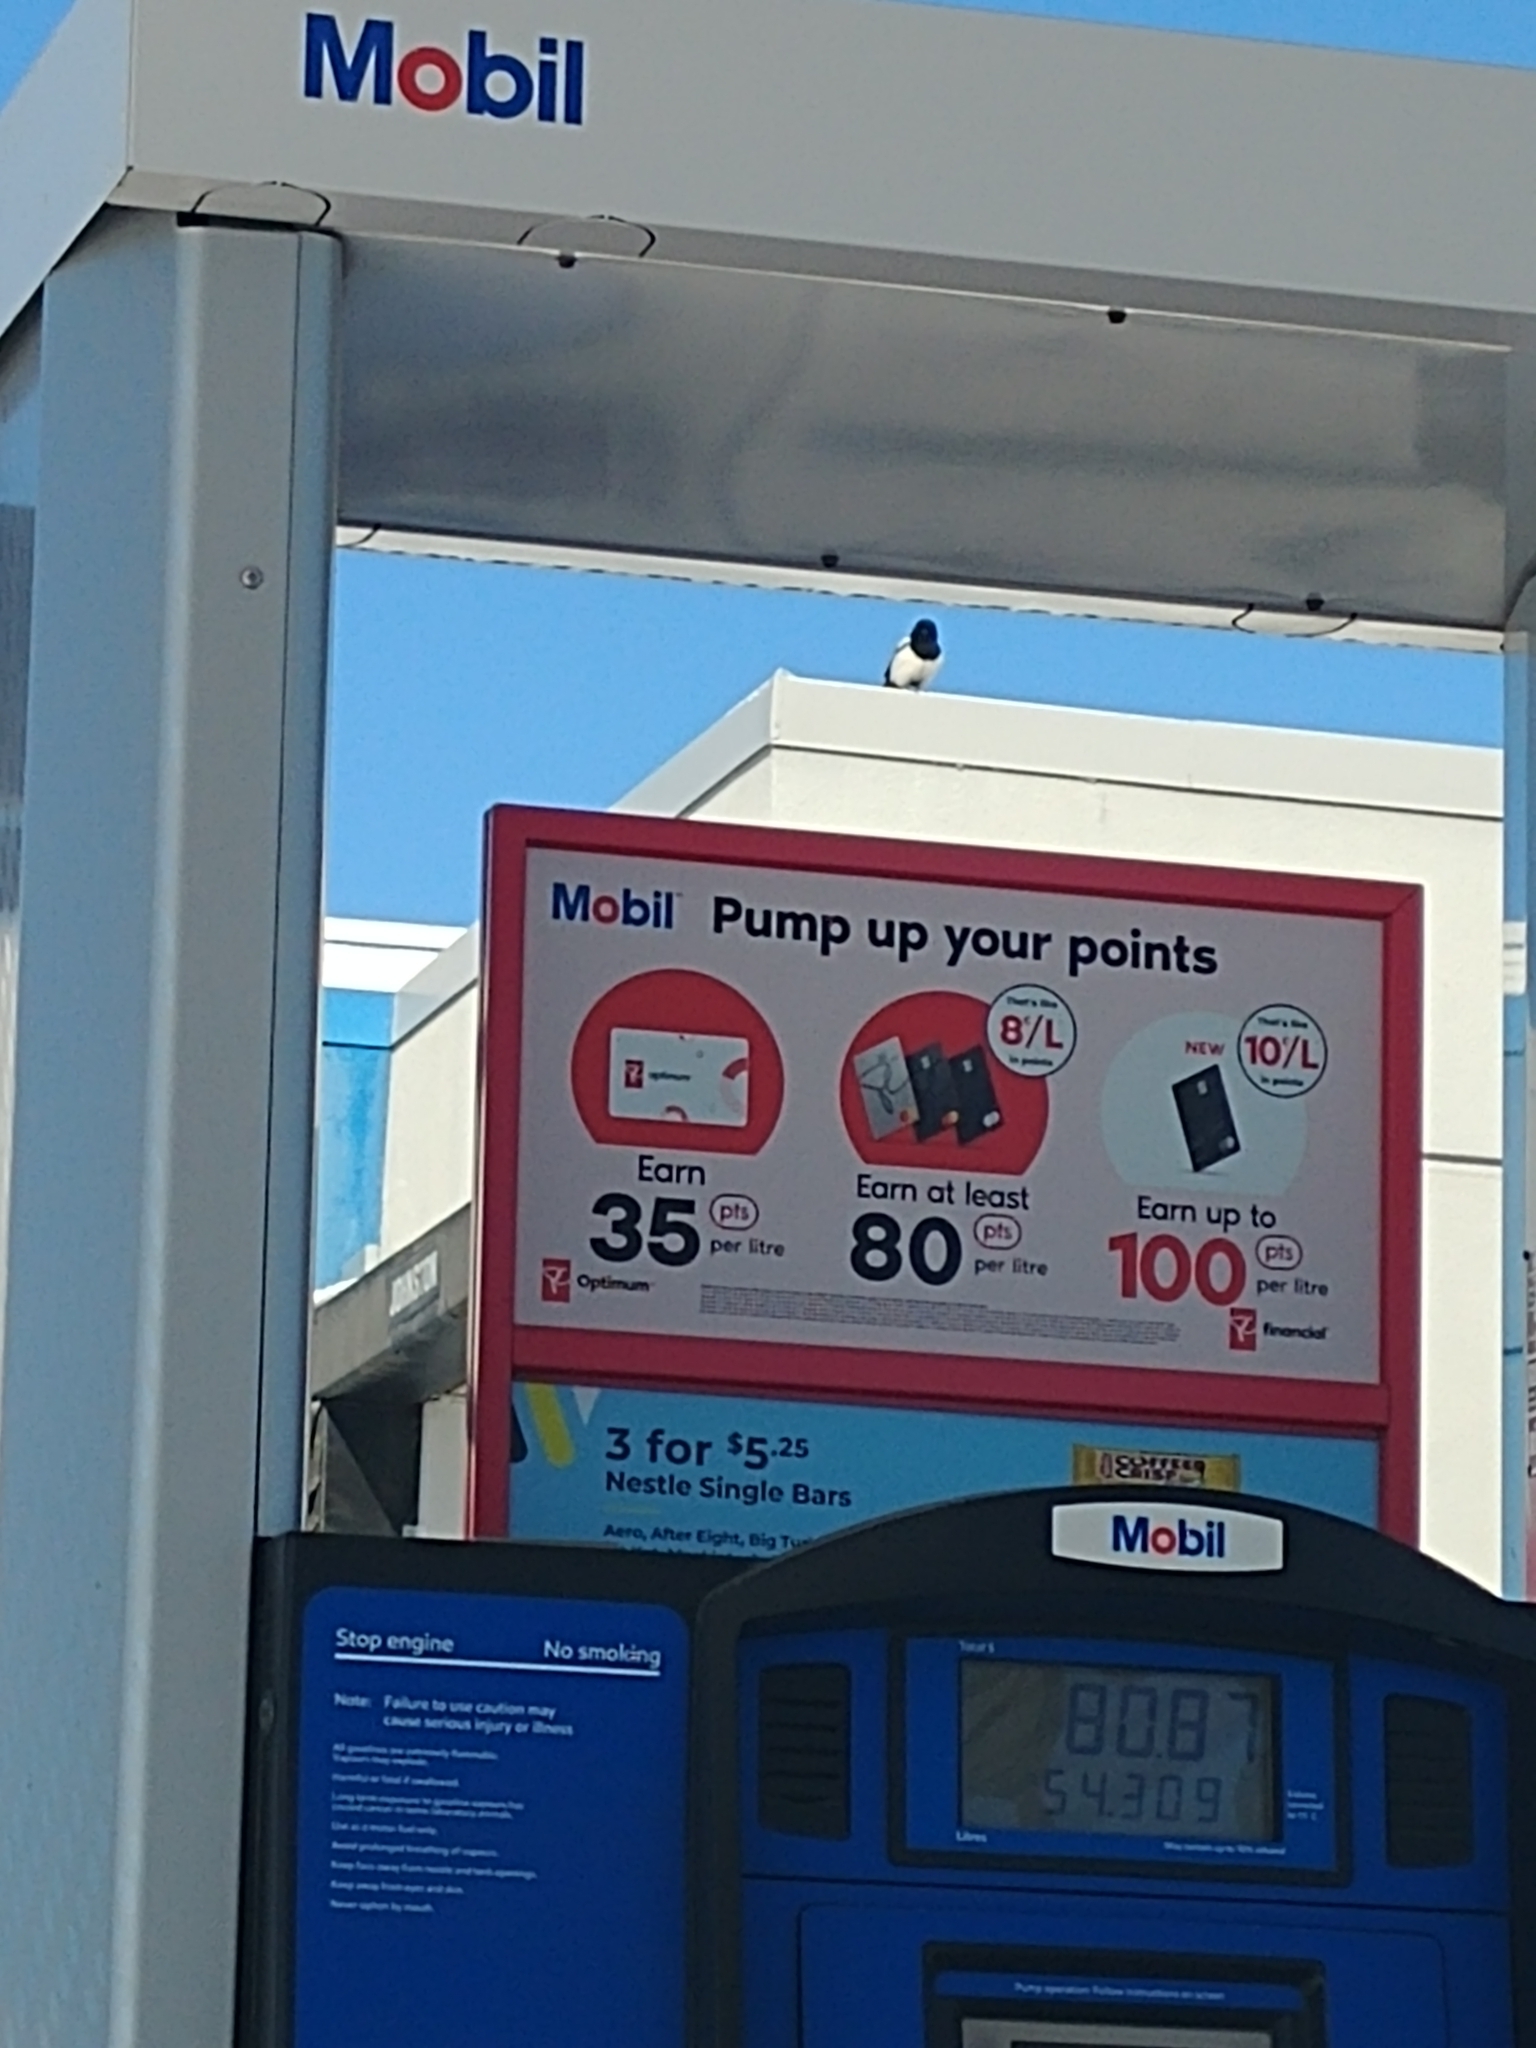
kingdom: Animalia
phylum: Chordata
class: Aves
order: Passeriformes
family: Corvidae
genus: Pica
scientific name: Pica hudsonia
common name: Black-billed magpie
